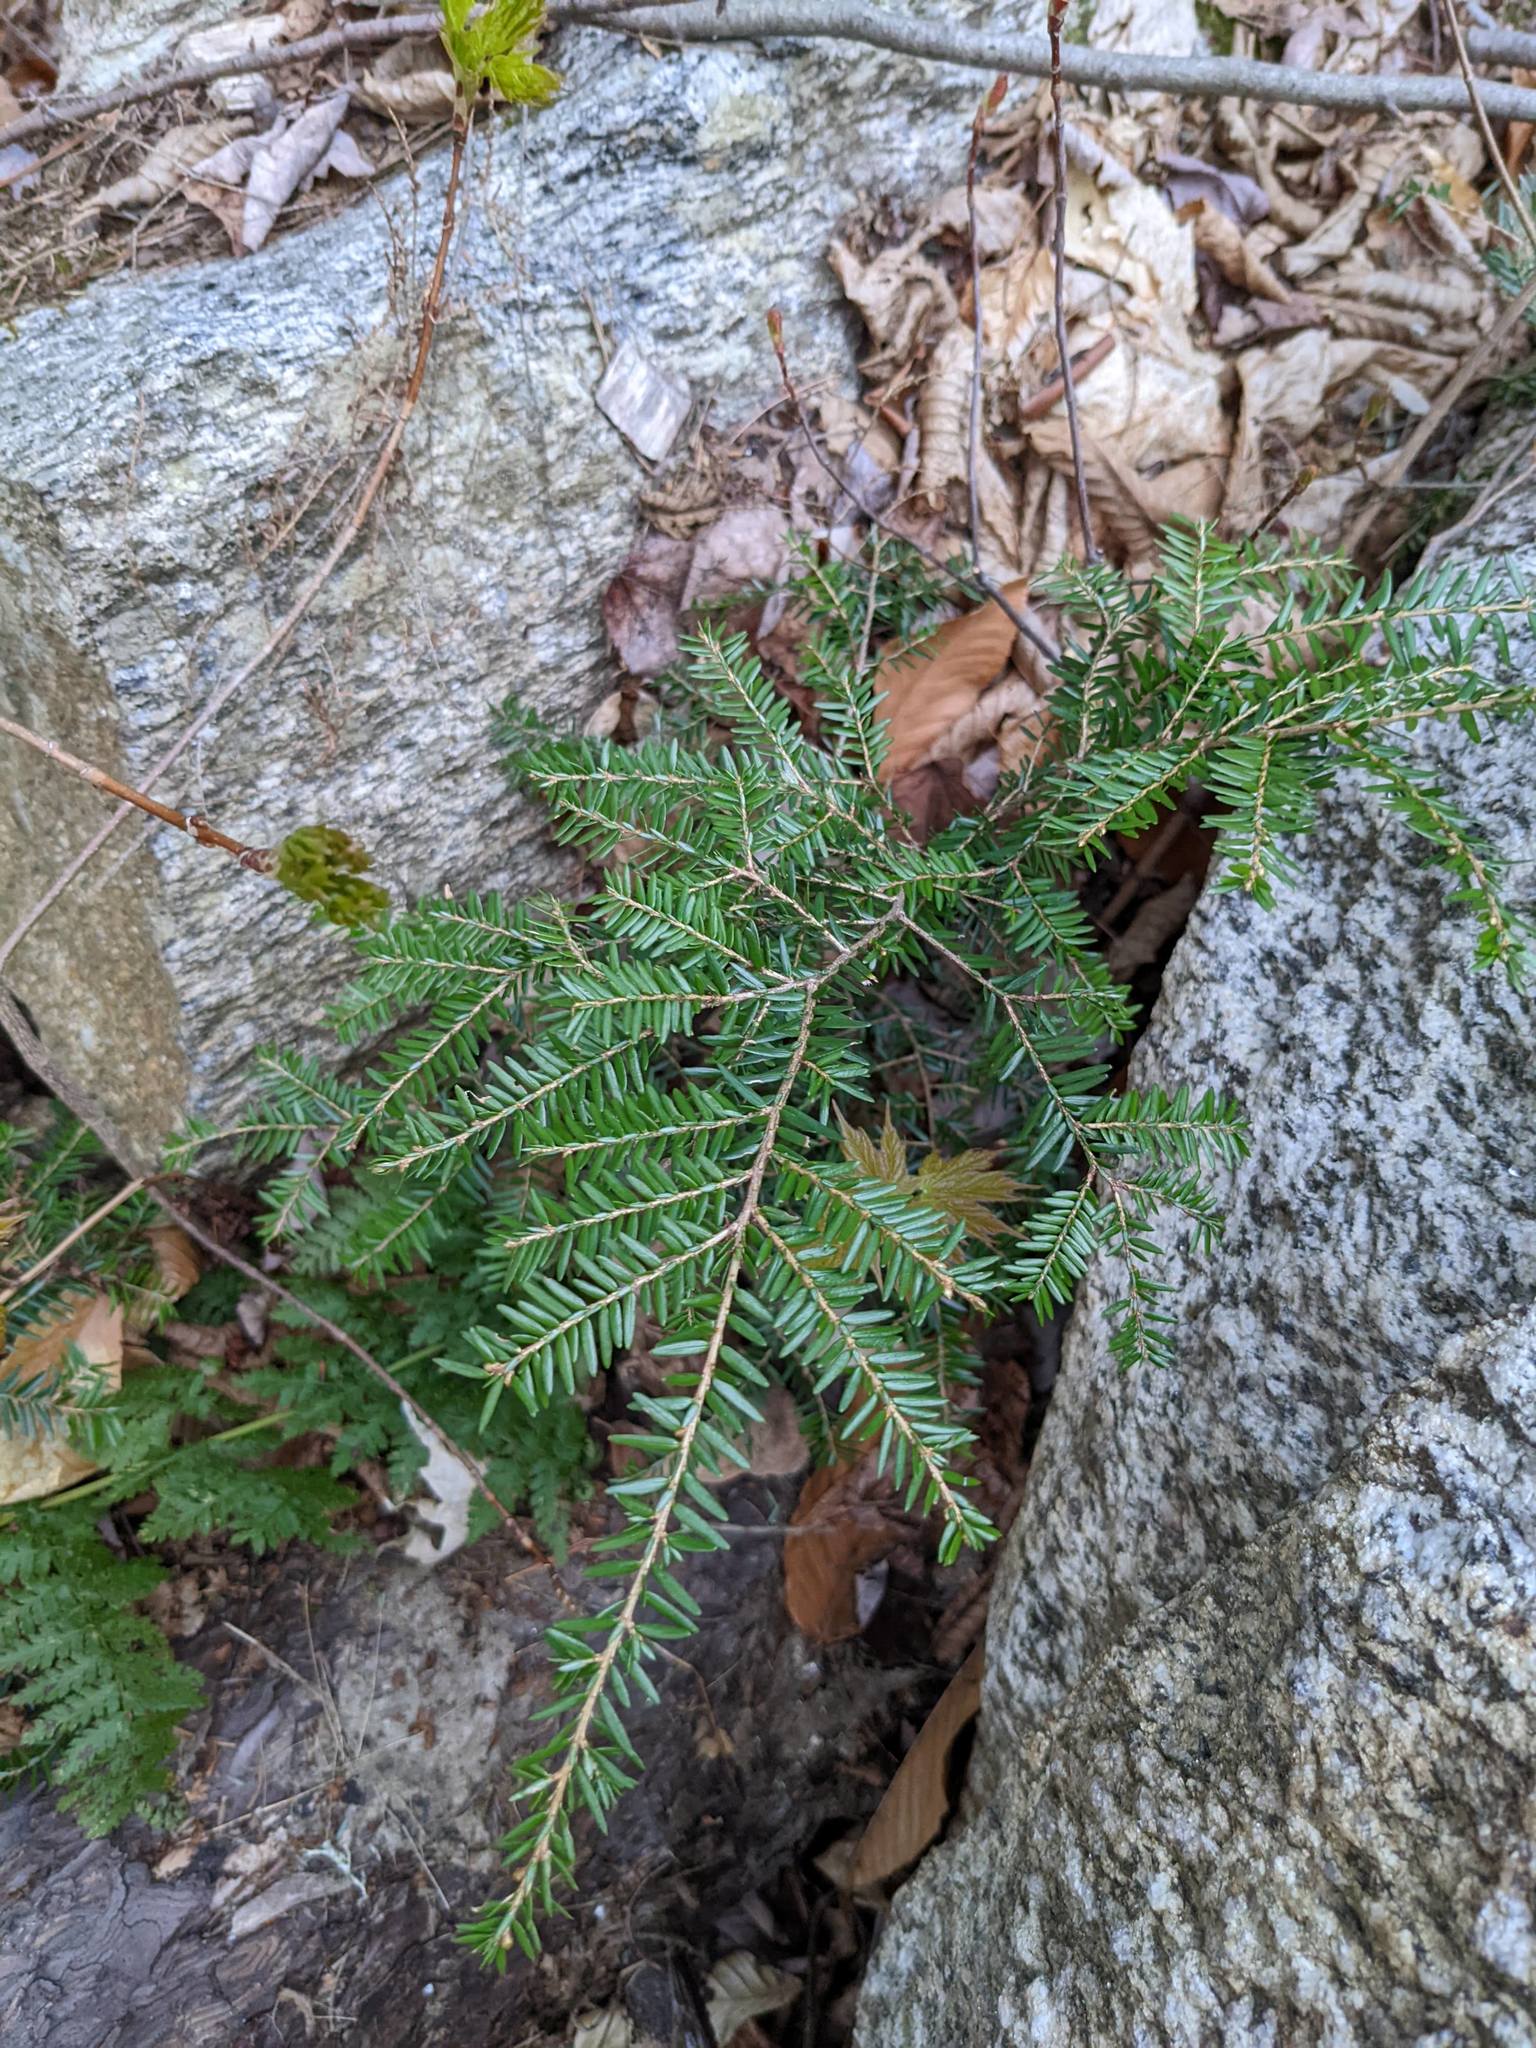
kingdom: Plantae
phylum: Tracheophyta
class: Pinopsida
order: Pinales
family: Pinaceae
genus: Tsuga
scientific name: Tsuga canadensis
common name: Eastern hemlock
